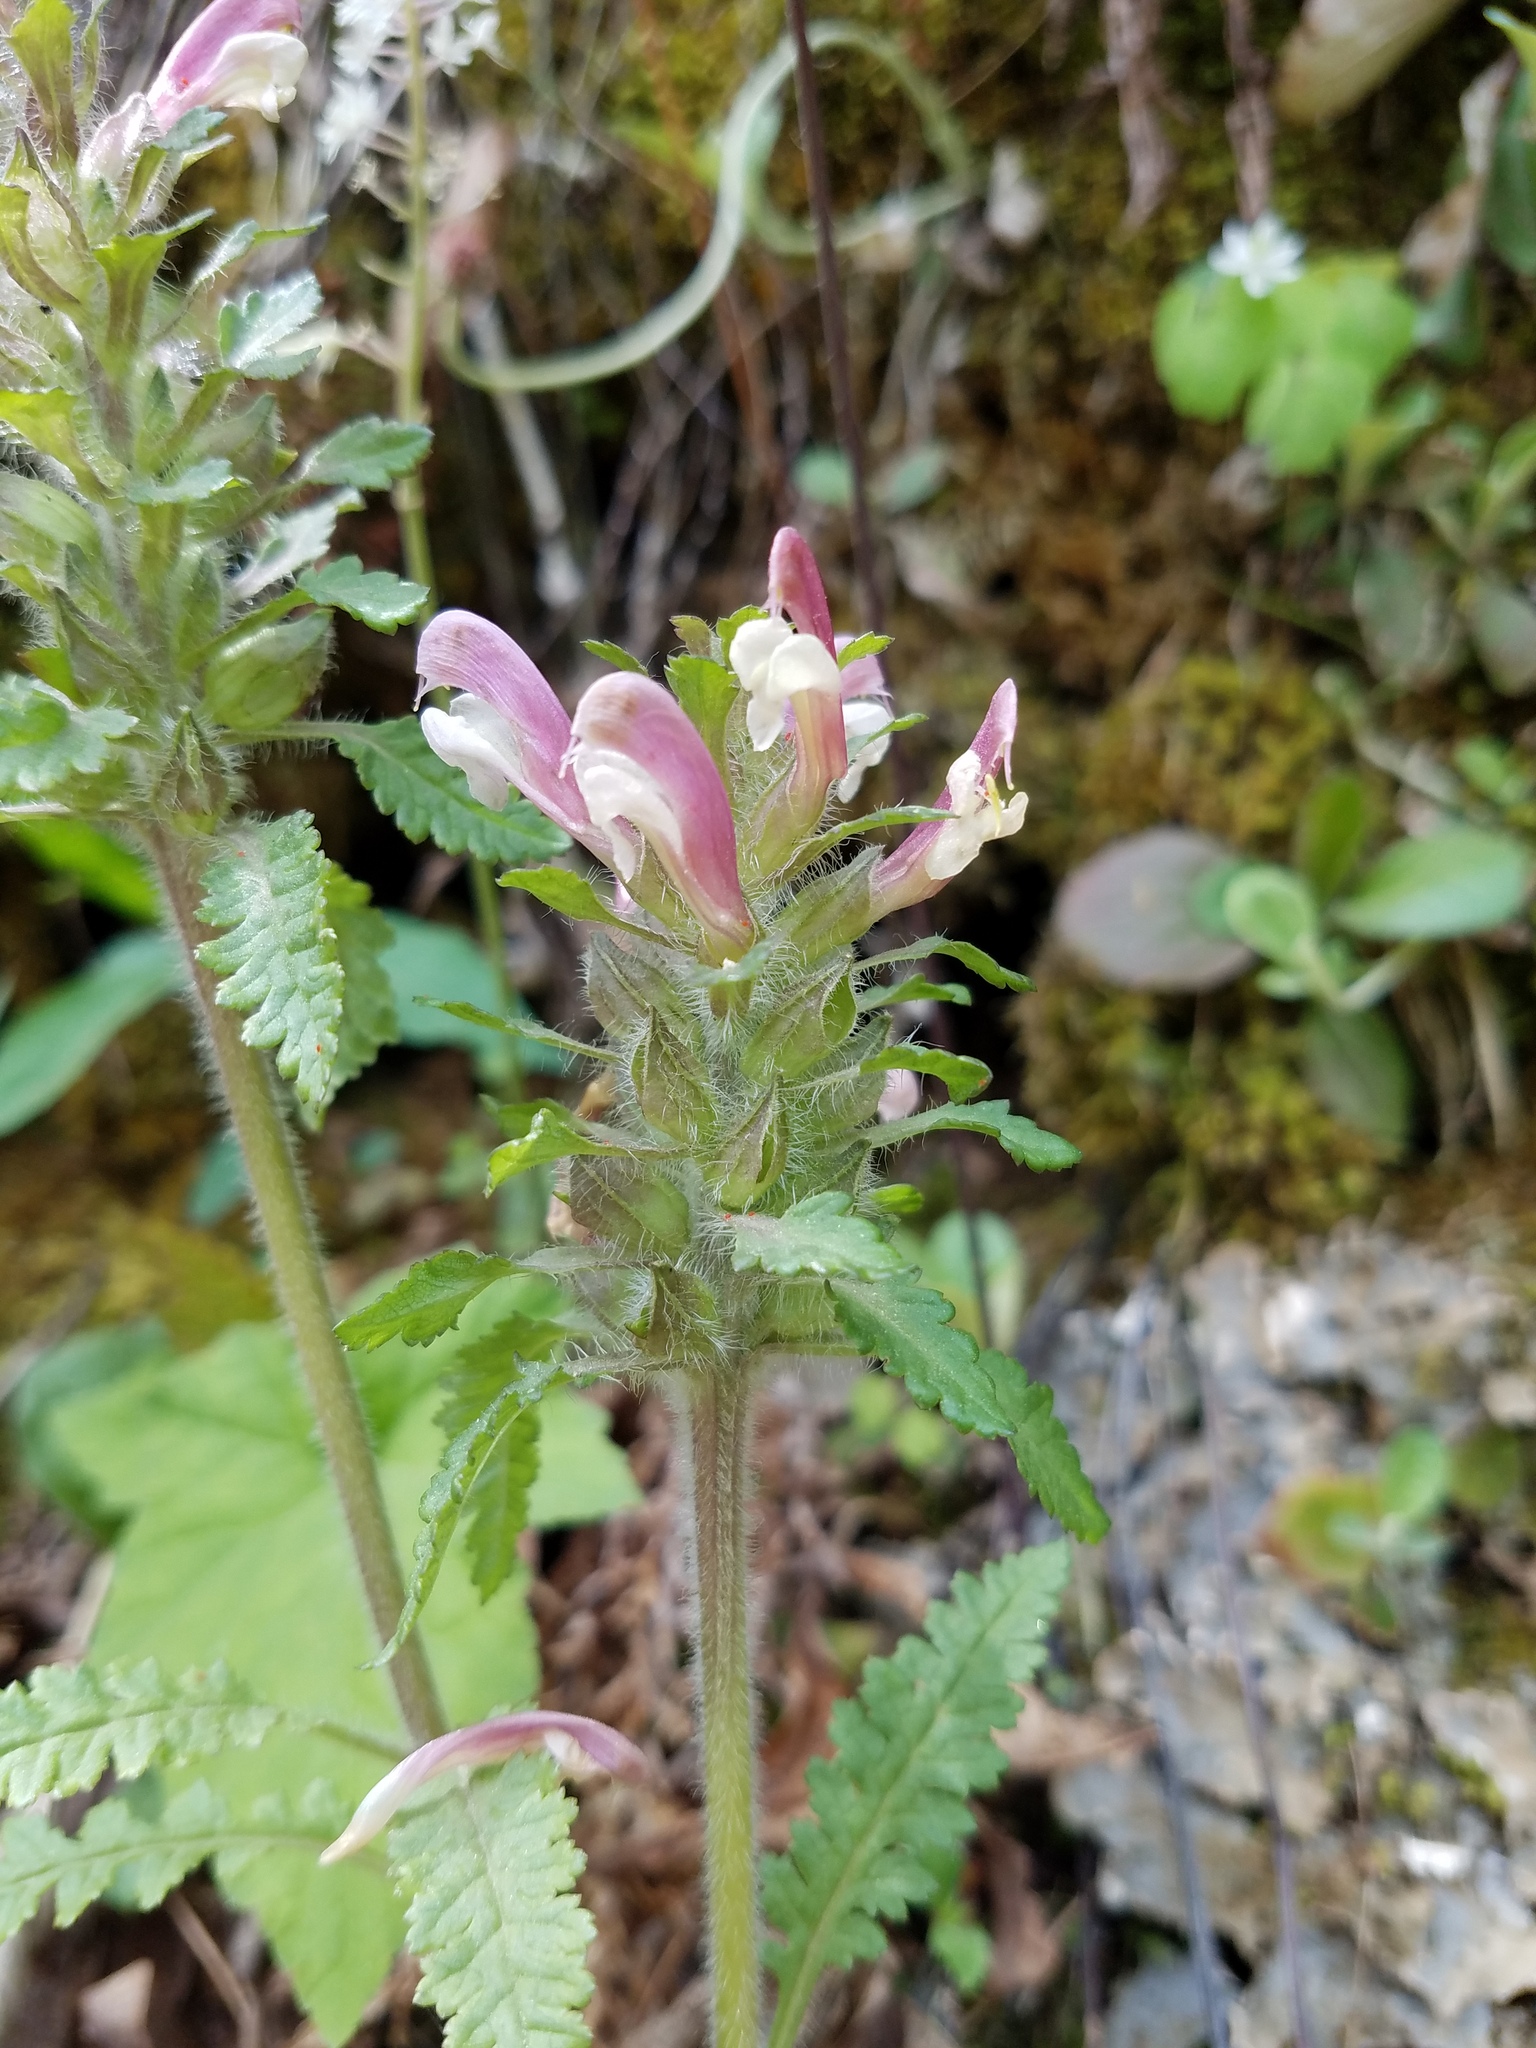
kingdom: Plantae
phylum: Tracheophyta
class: Magnoliopsida
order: Lamiales
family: Orobanchaceae
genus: Pedicularis
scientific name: Pedicularis canadensis
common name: Early lousewort
